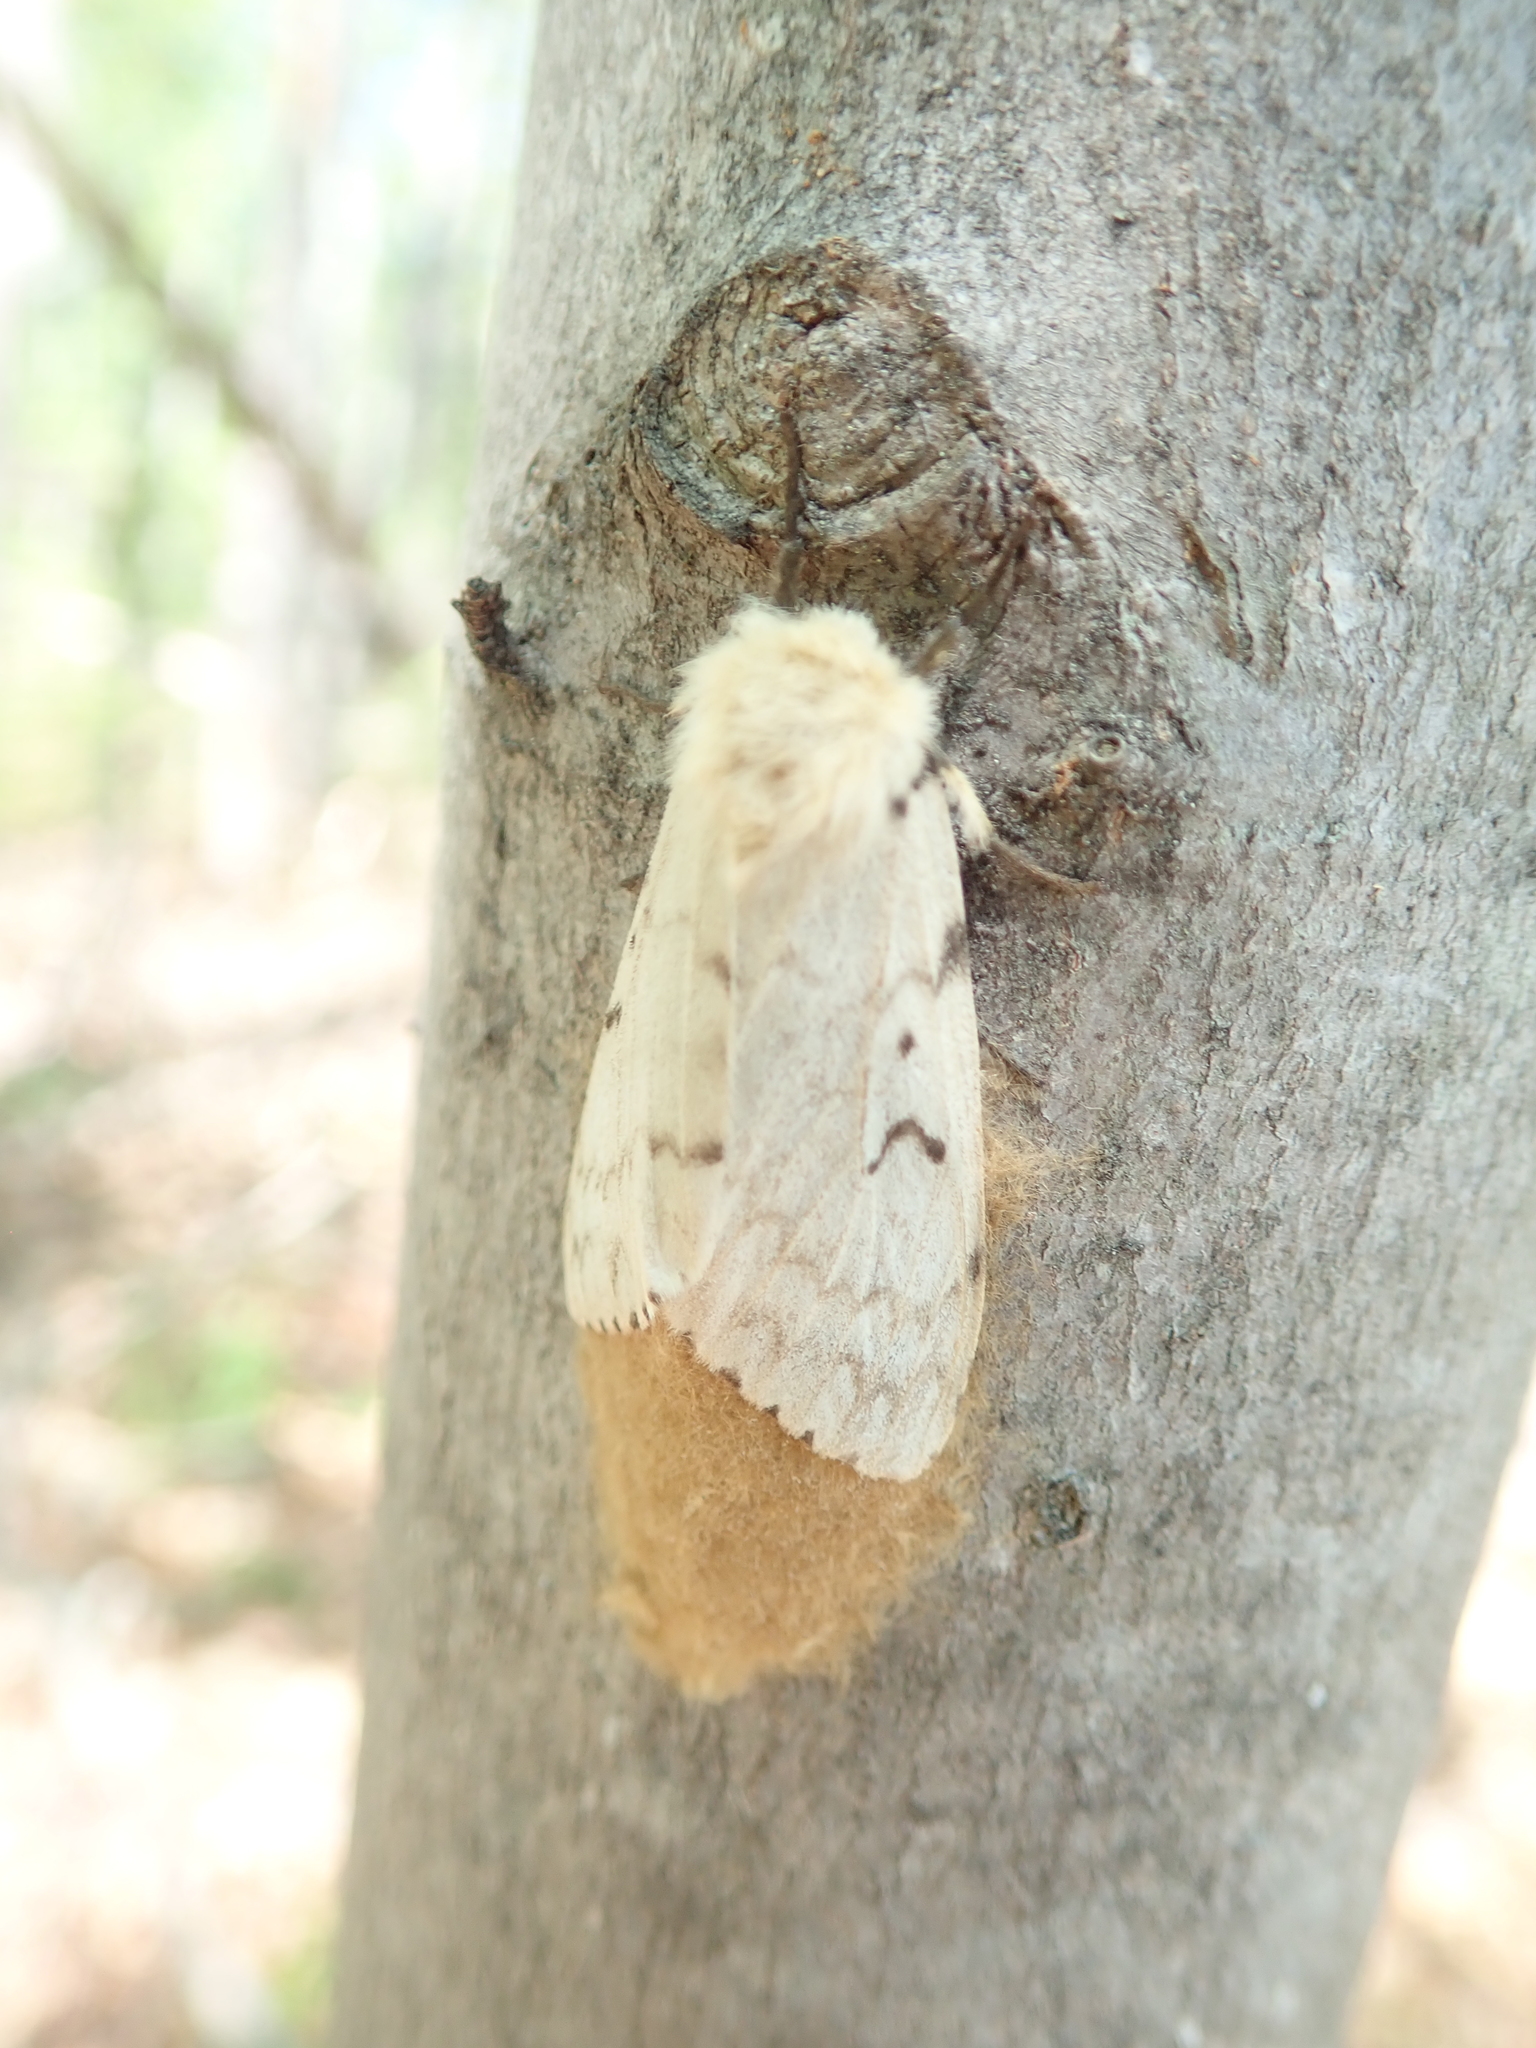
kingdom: Animalia
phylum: Arthropoda
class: Insecta
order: Lepidoptera
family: Erebidae
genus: Lymantria
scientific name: Lymantria dispar
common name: Gypsy moth
